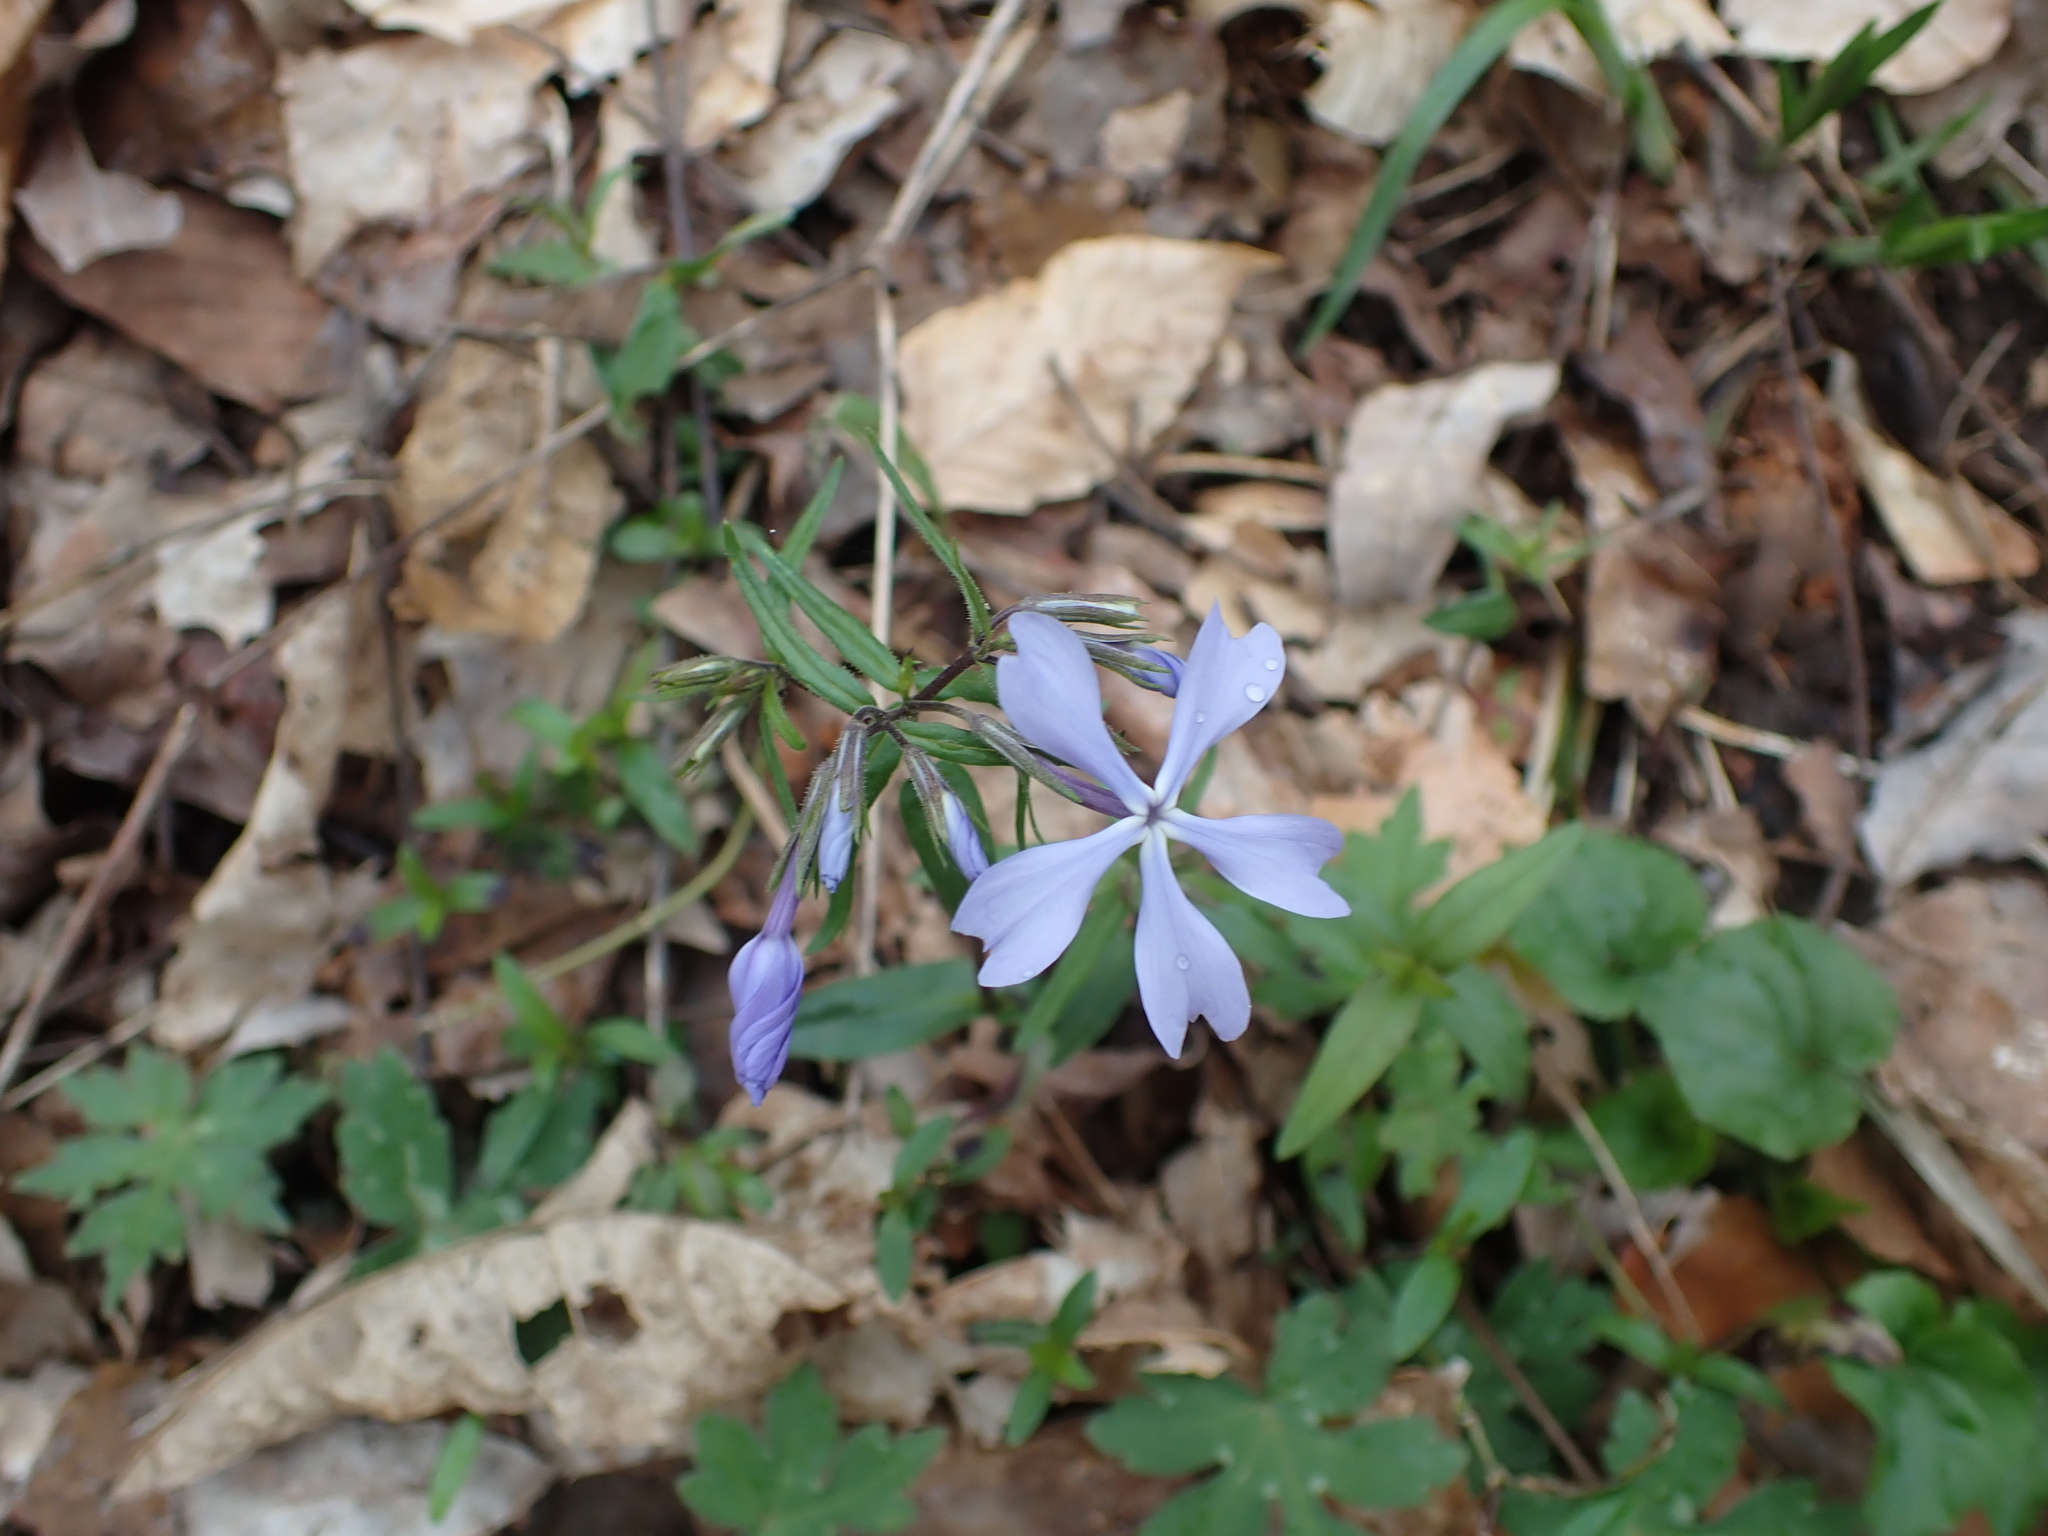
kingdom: Plantae
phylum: Tracheophyta
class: Magnoliopsida
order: Ericales
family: Polemoniaceae
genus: Phlox
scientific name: Phlox divaricata
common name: Blue phlox
